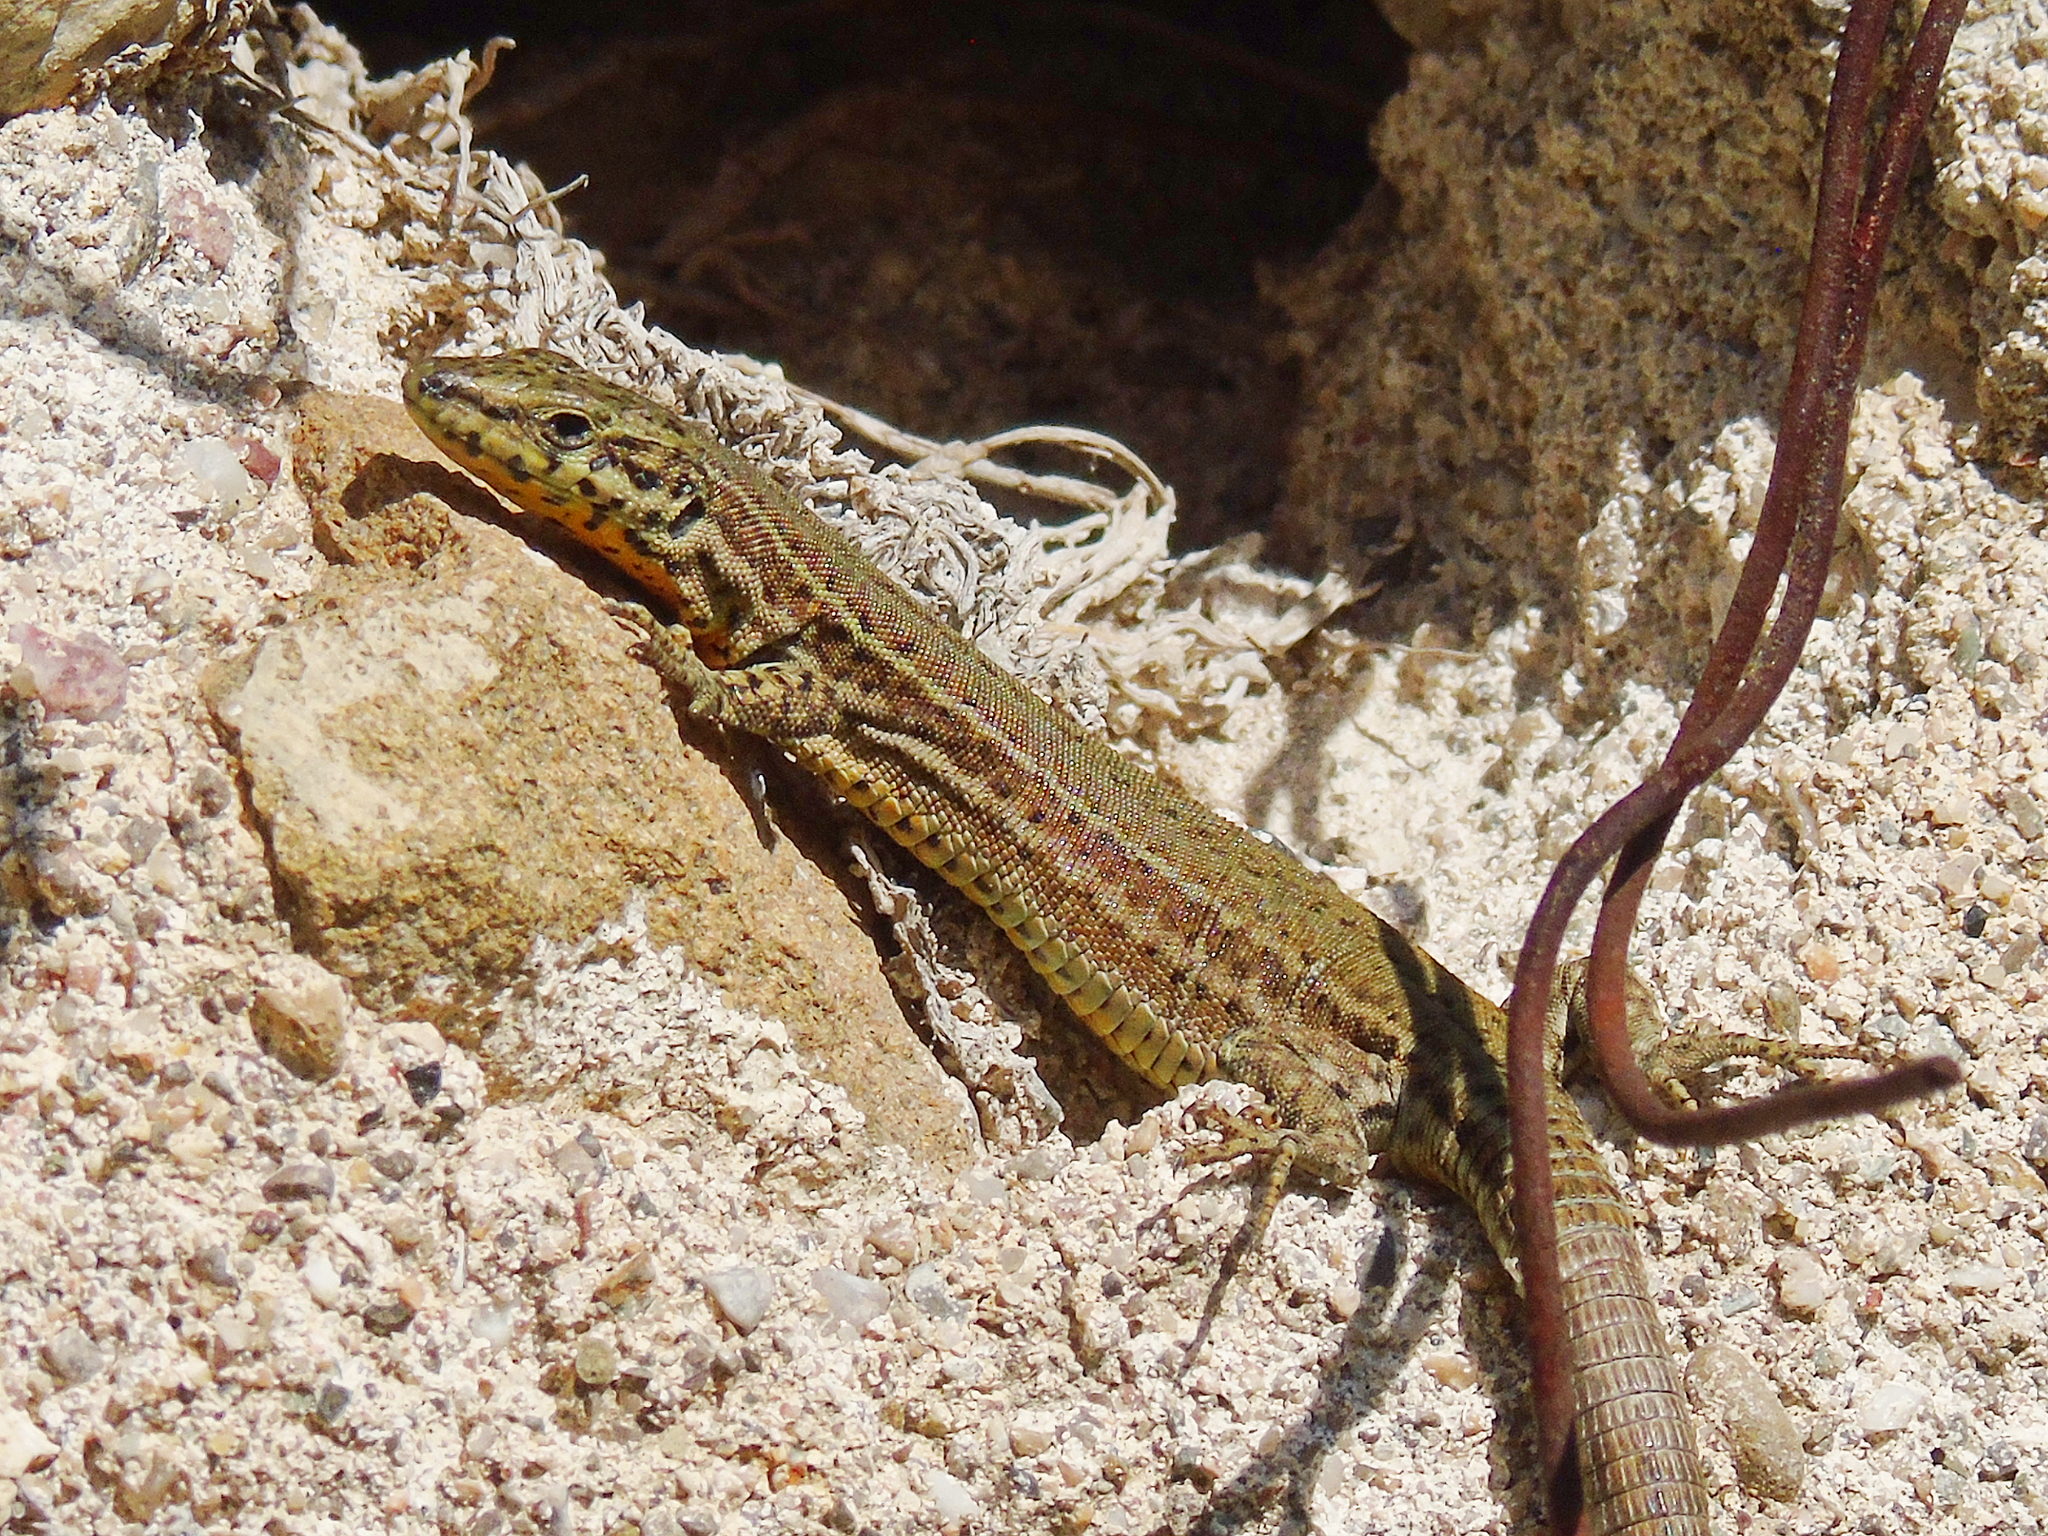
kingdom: Animalia
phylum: Chordata
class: Squamata
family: Lacertidae
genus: Podarcis
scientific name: Podarcis liolepis
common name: Catalonian wall lizard
